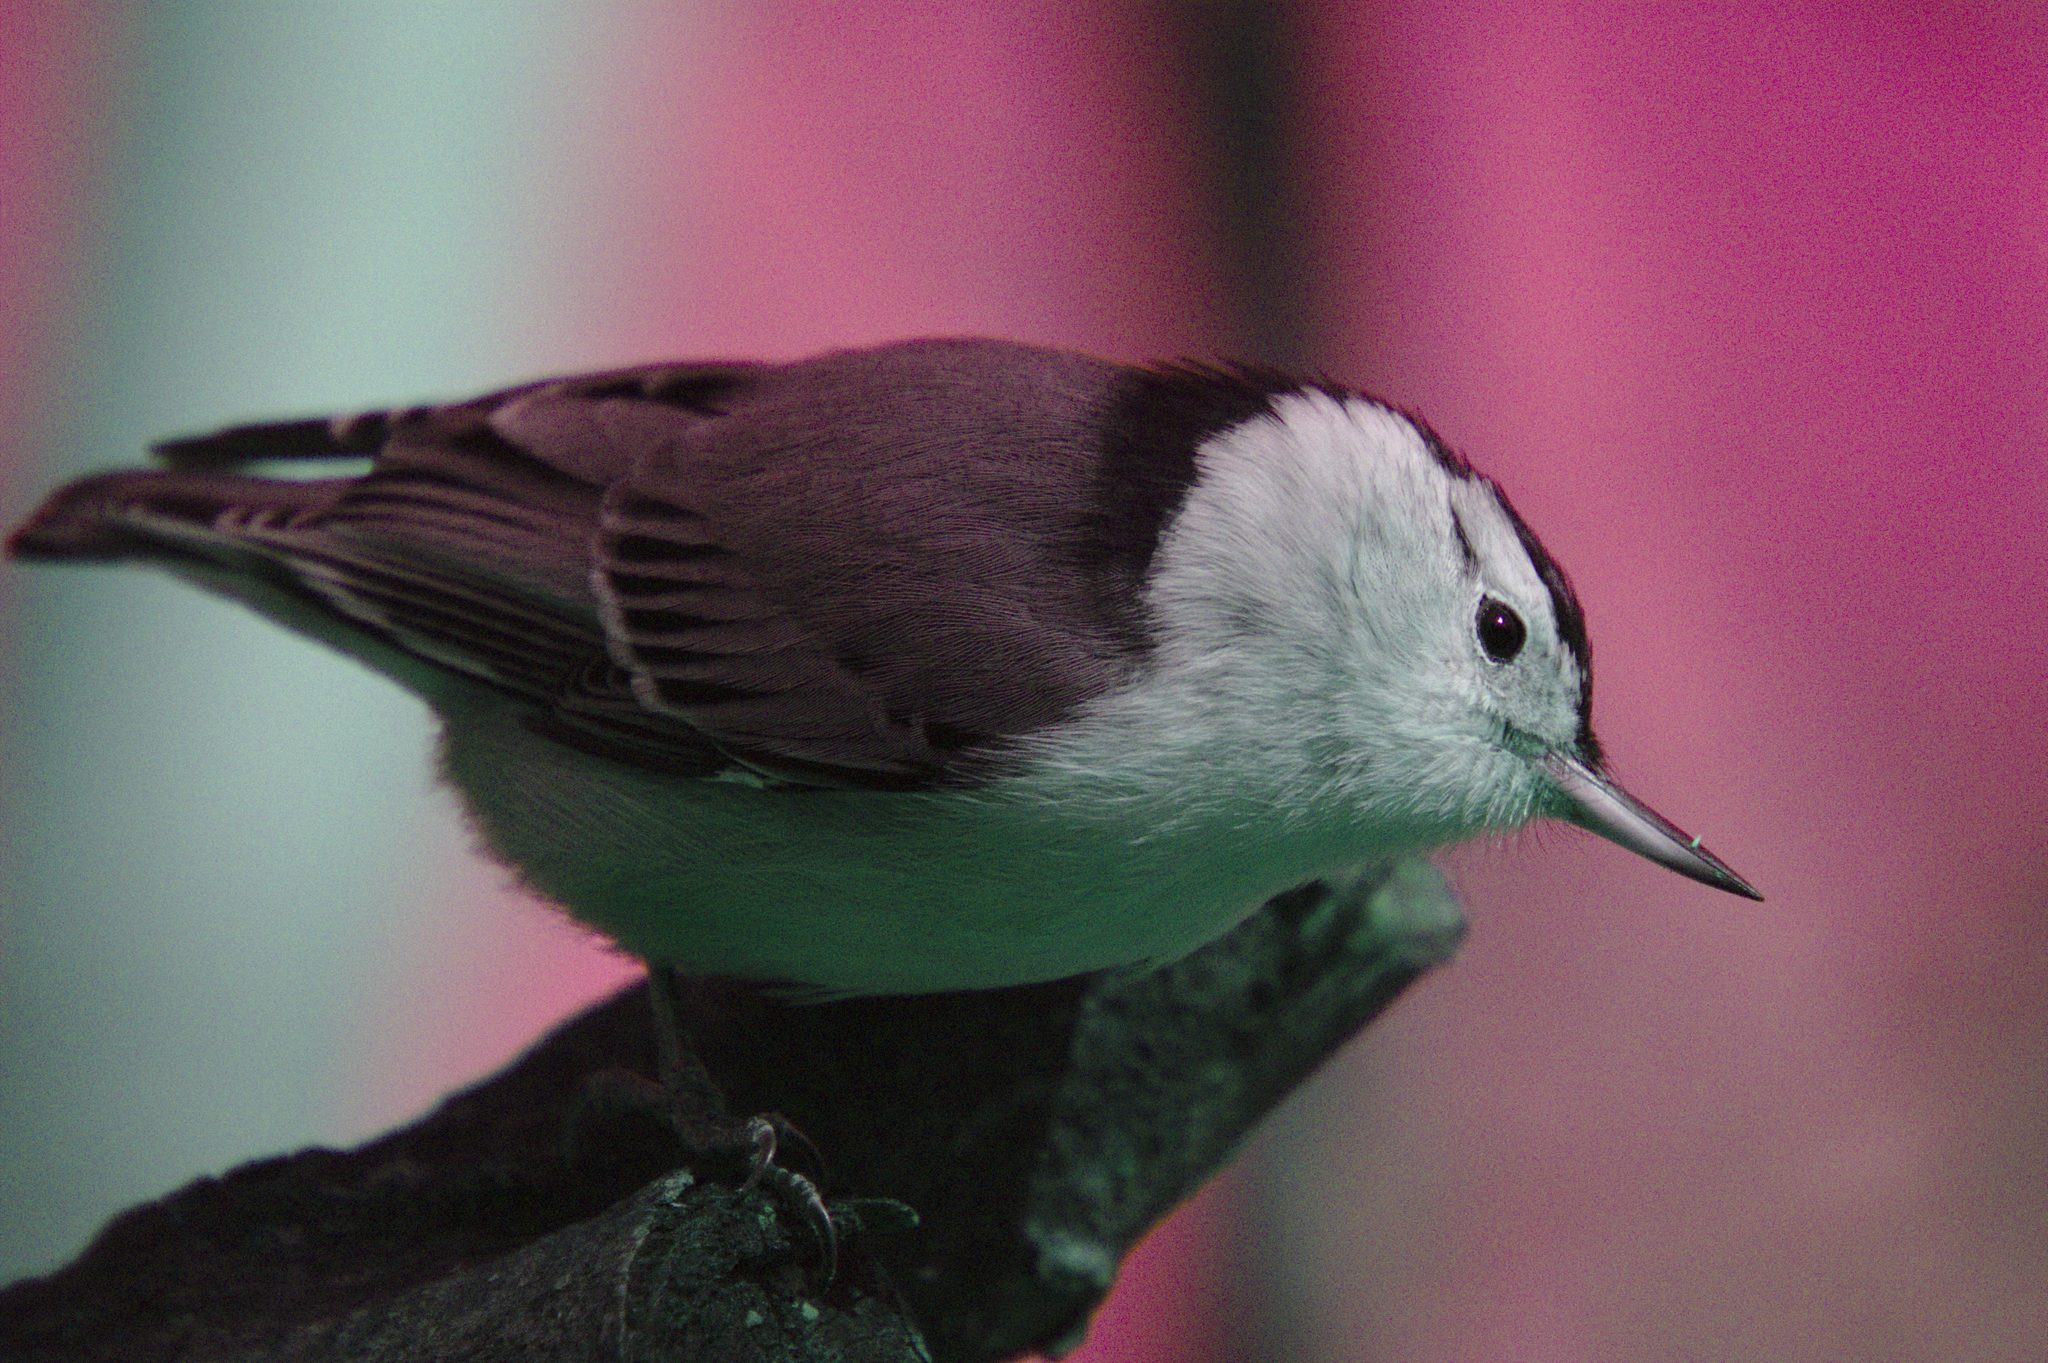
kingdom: Animalia
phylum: Chordata
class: Aves
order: Passeriformes
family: Sittidae
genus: Sitta
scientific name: Sitta carolinensis
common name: White-breasted nuthatch
